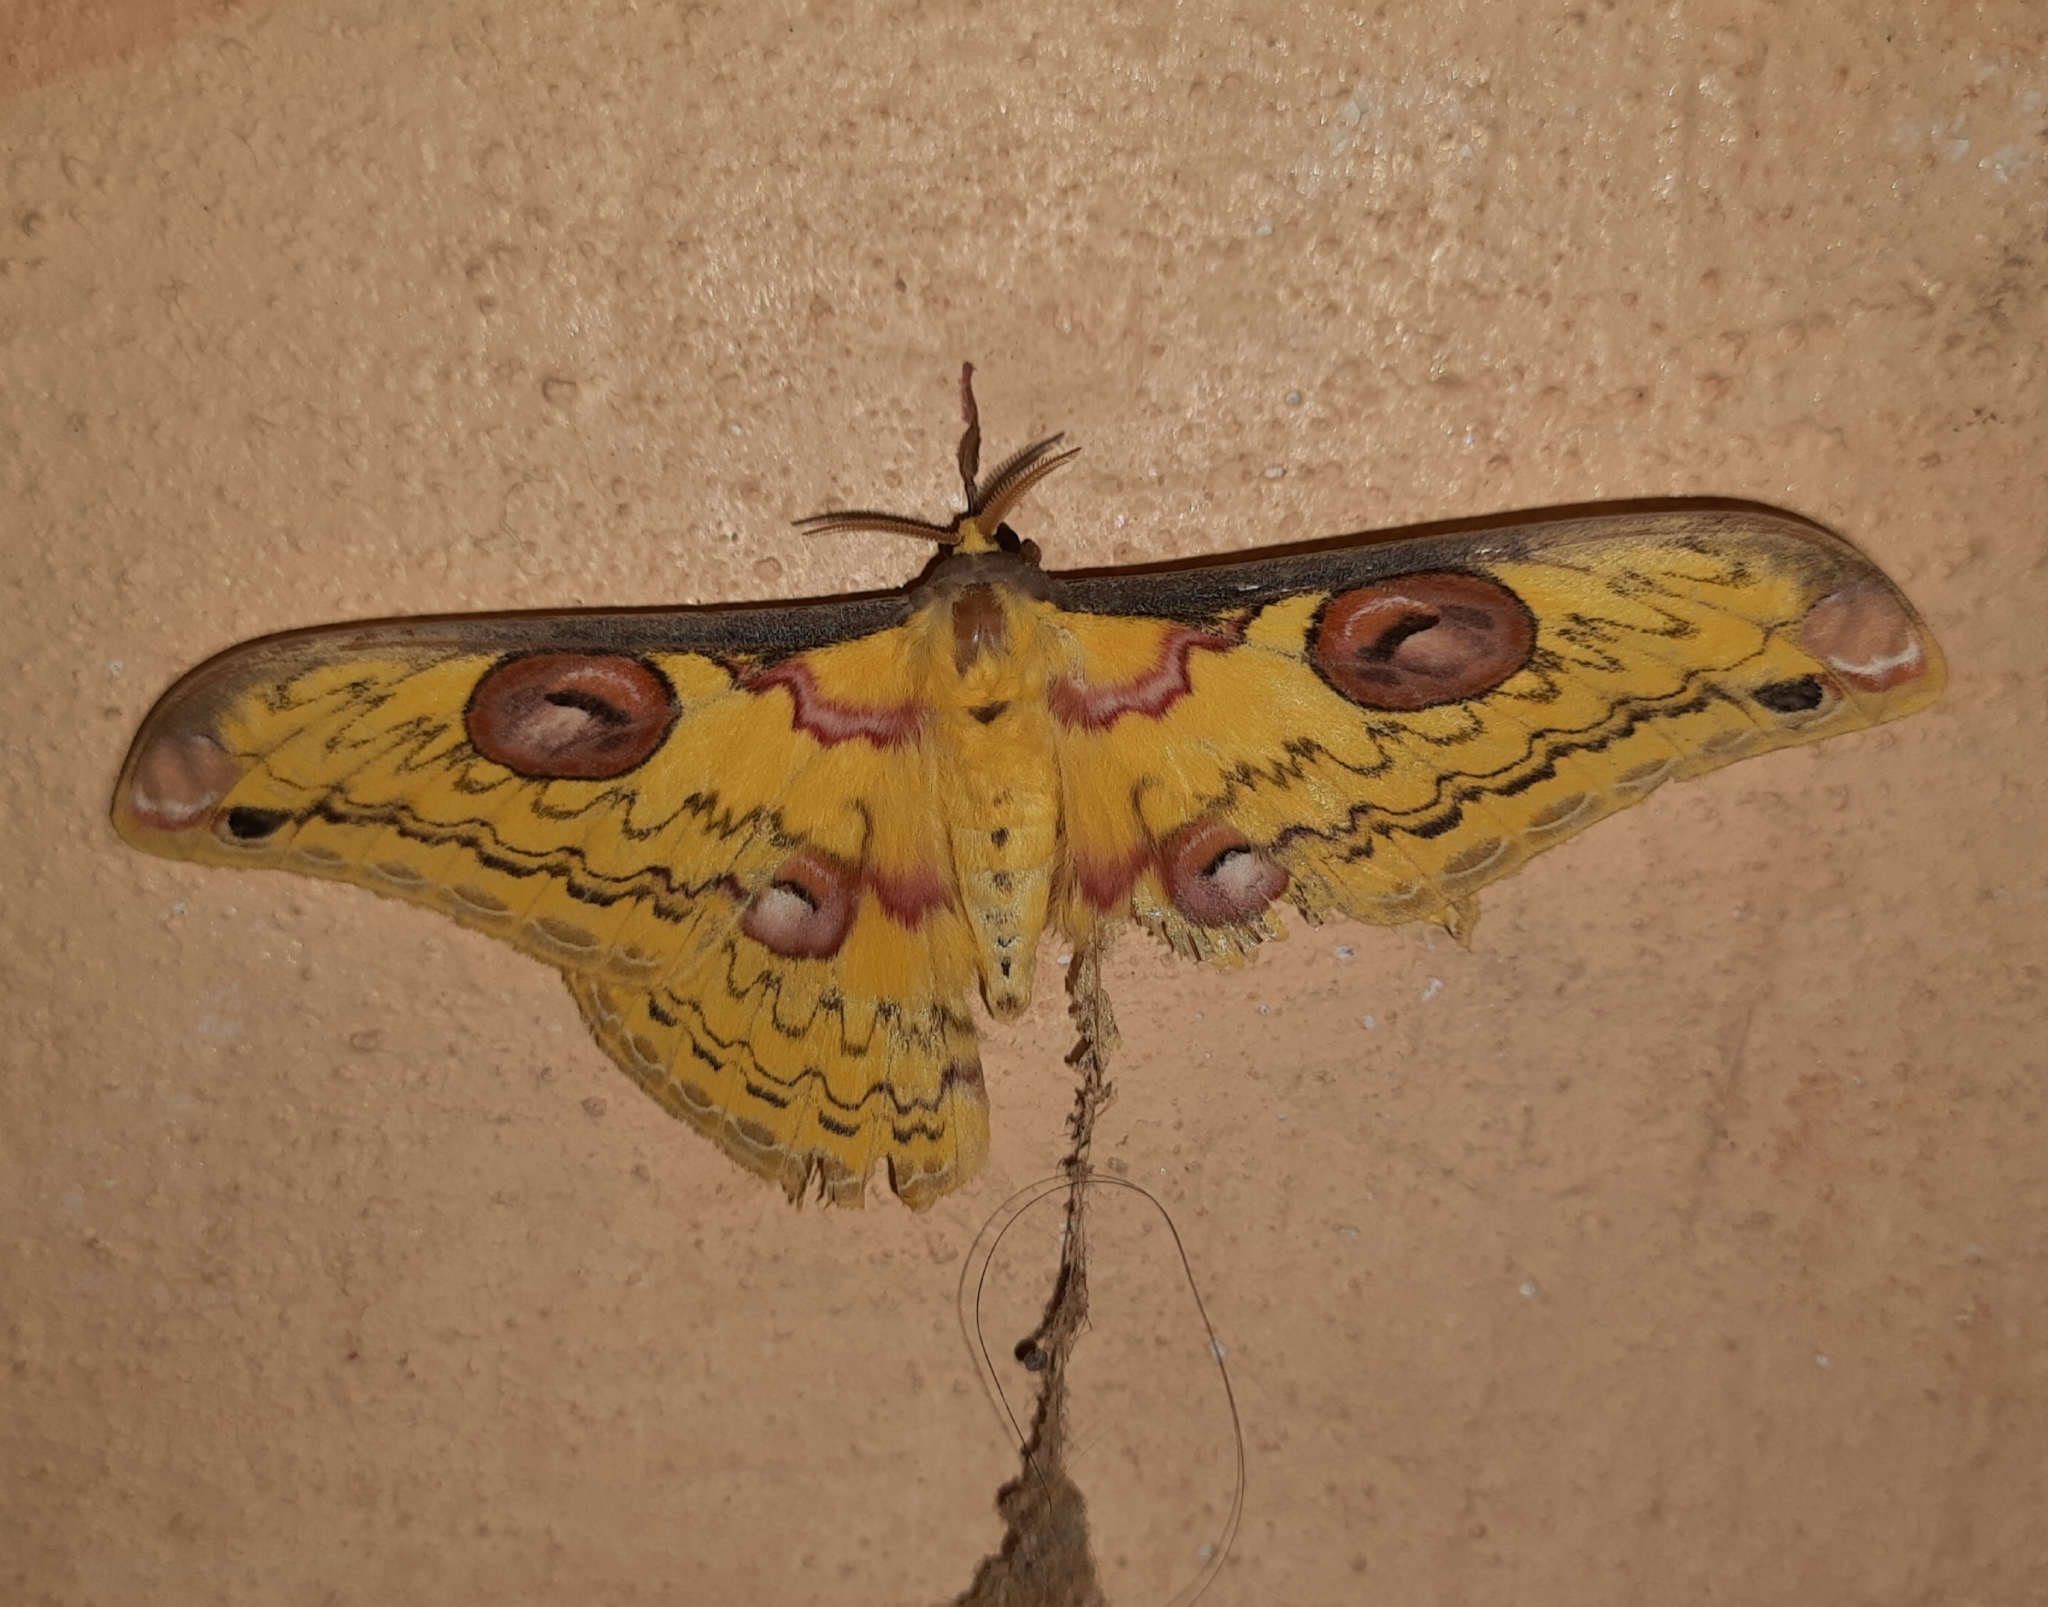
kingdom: Animalia
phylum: Arthropoda
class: Insecta
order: Lepidoptera
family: Saturniidae
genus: Loepa
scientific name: Loepa schintlmeisteri
